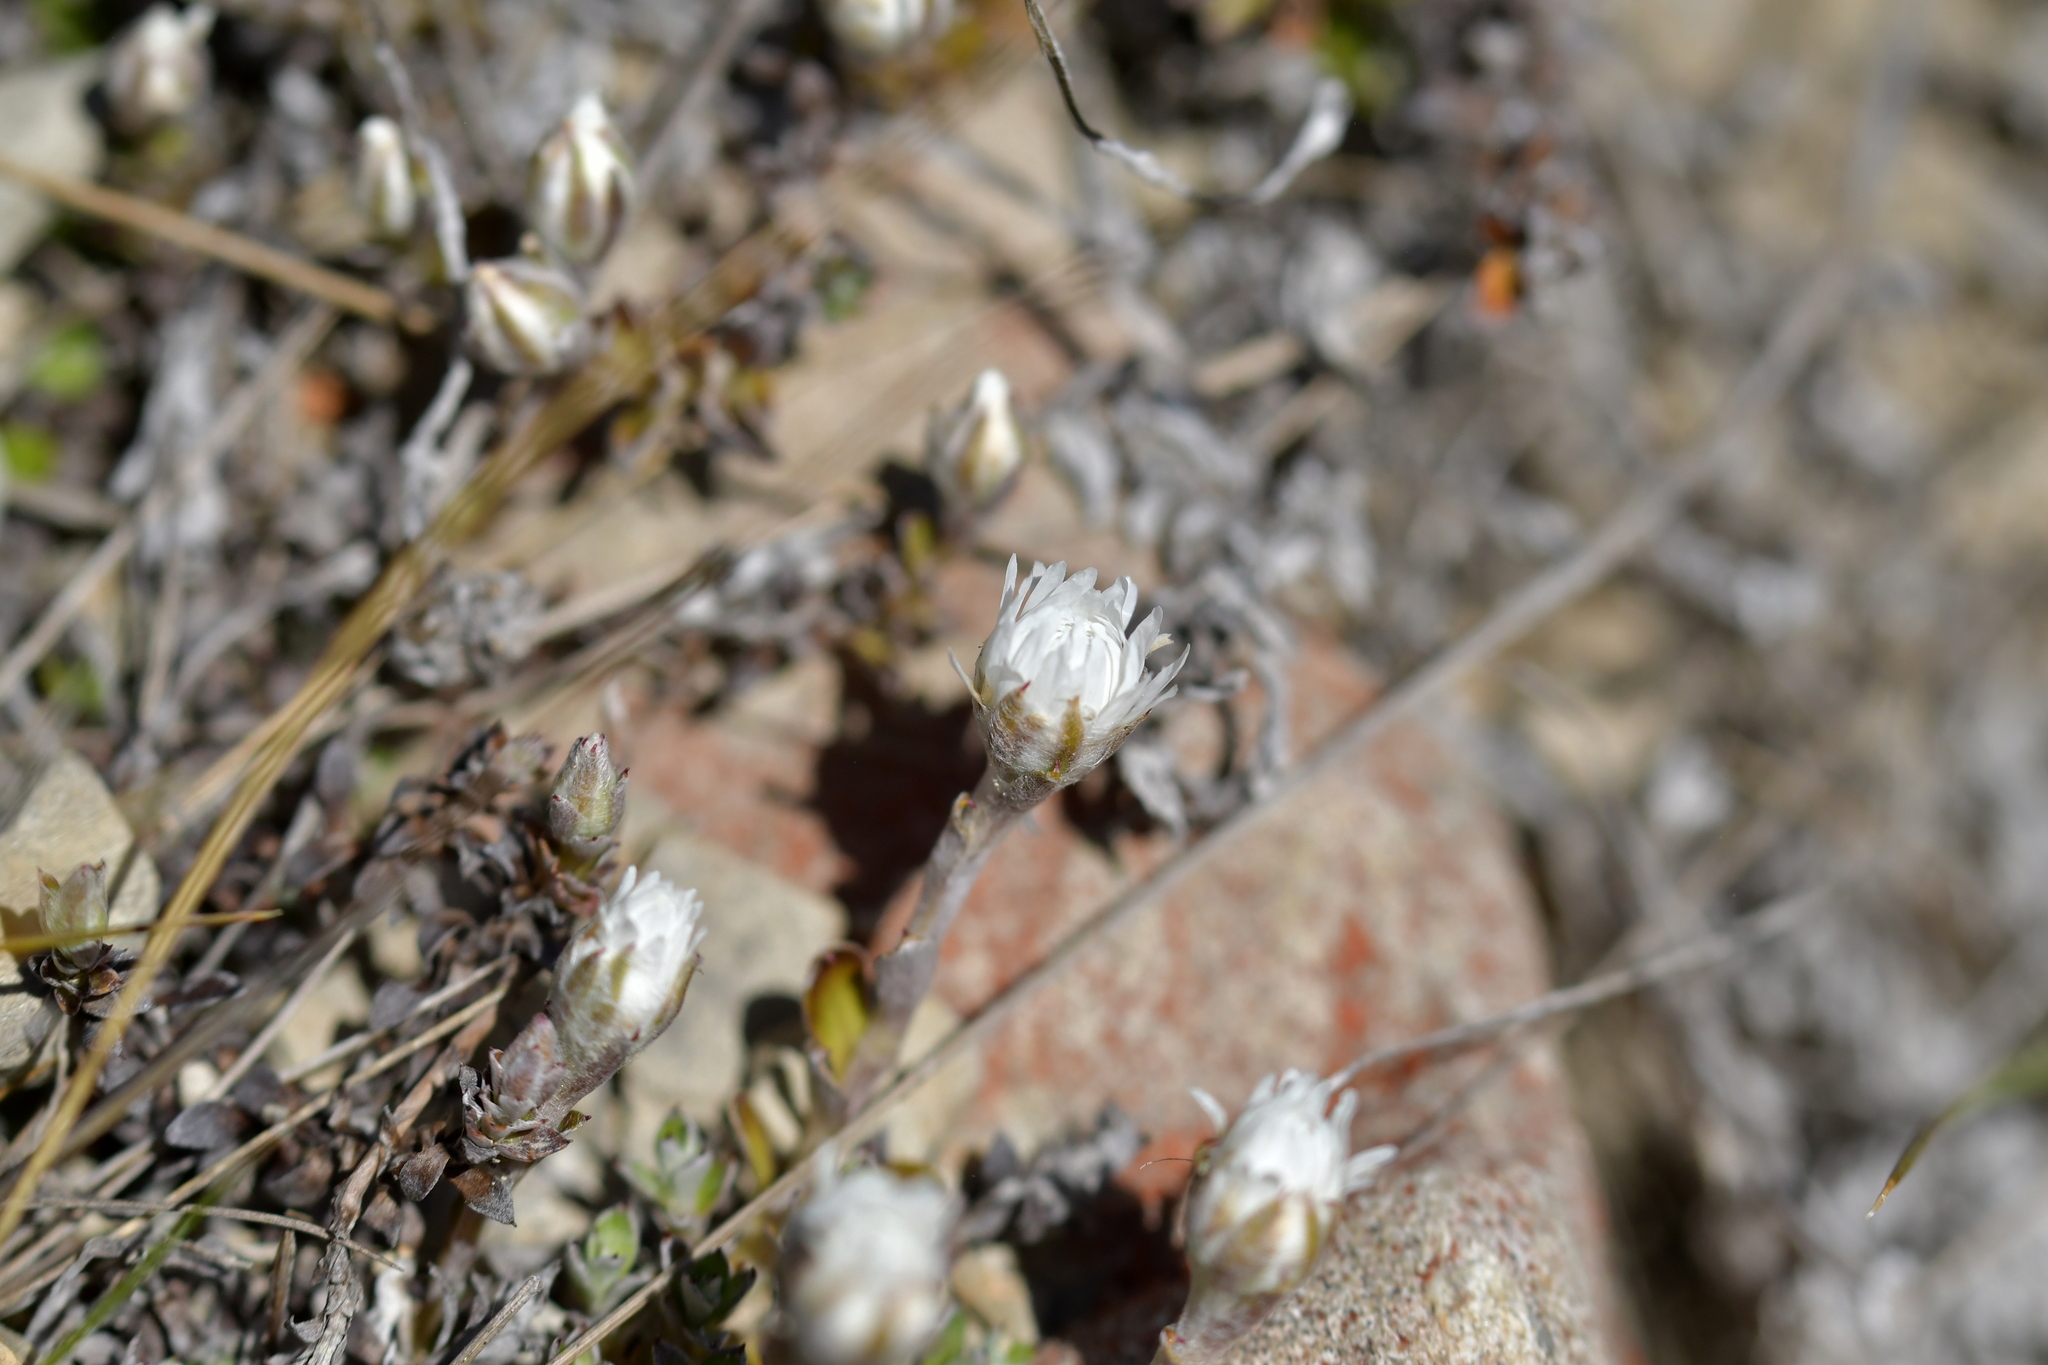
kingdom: Plantae
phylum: Tracheophyta
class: Magnoliopsida
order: Asterales
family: Asteraceae
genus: Anaphalioides
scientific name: Anaphalioides bellidioides
